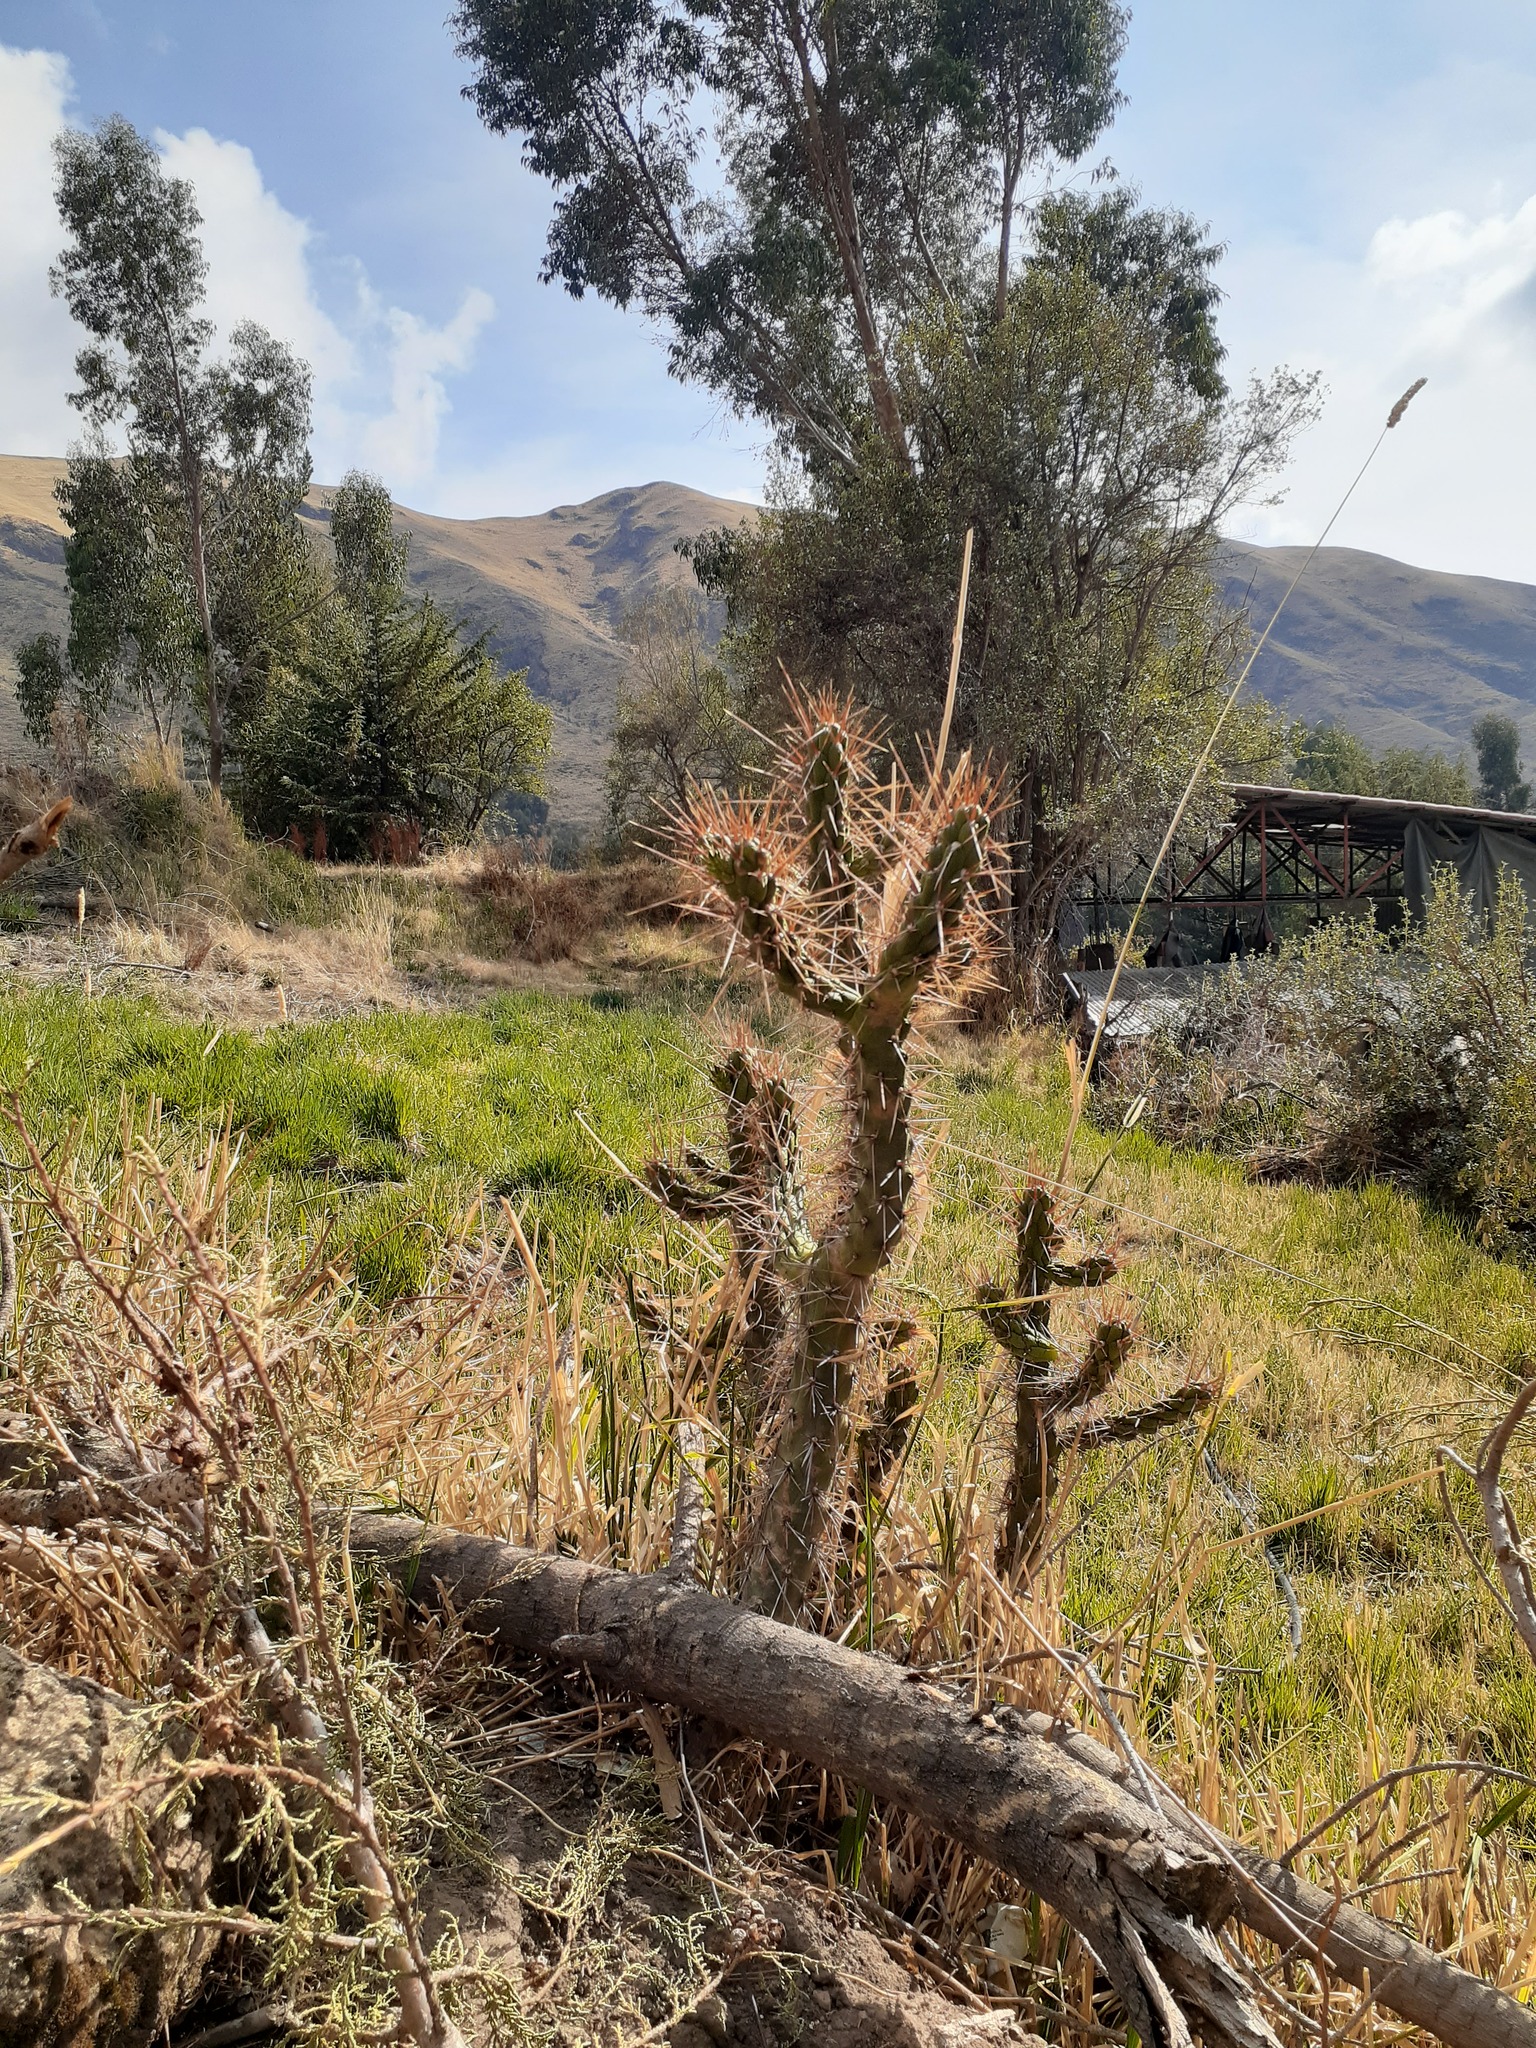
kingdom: Plantae
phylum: Tracheophyta
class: Magnoliopsida
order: Caryophyllales
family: Cactaceae
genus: Austrocylindropuntia
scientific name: Austrocylindropuntia subulata
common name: Eve's needle cactus
